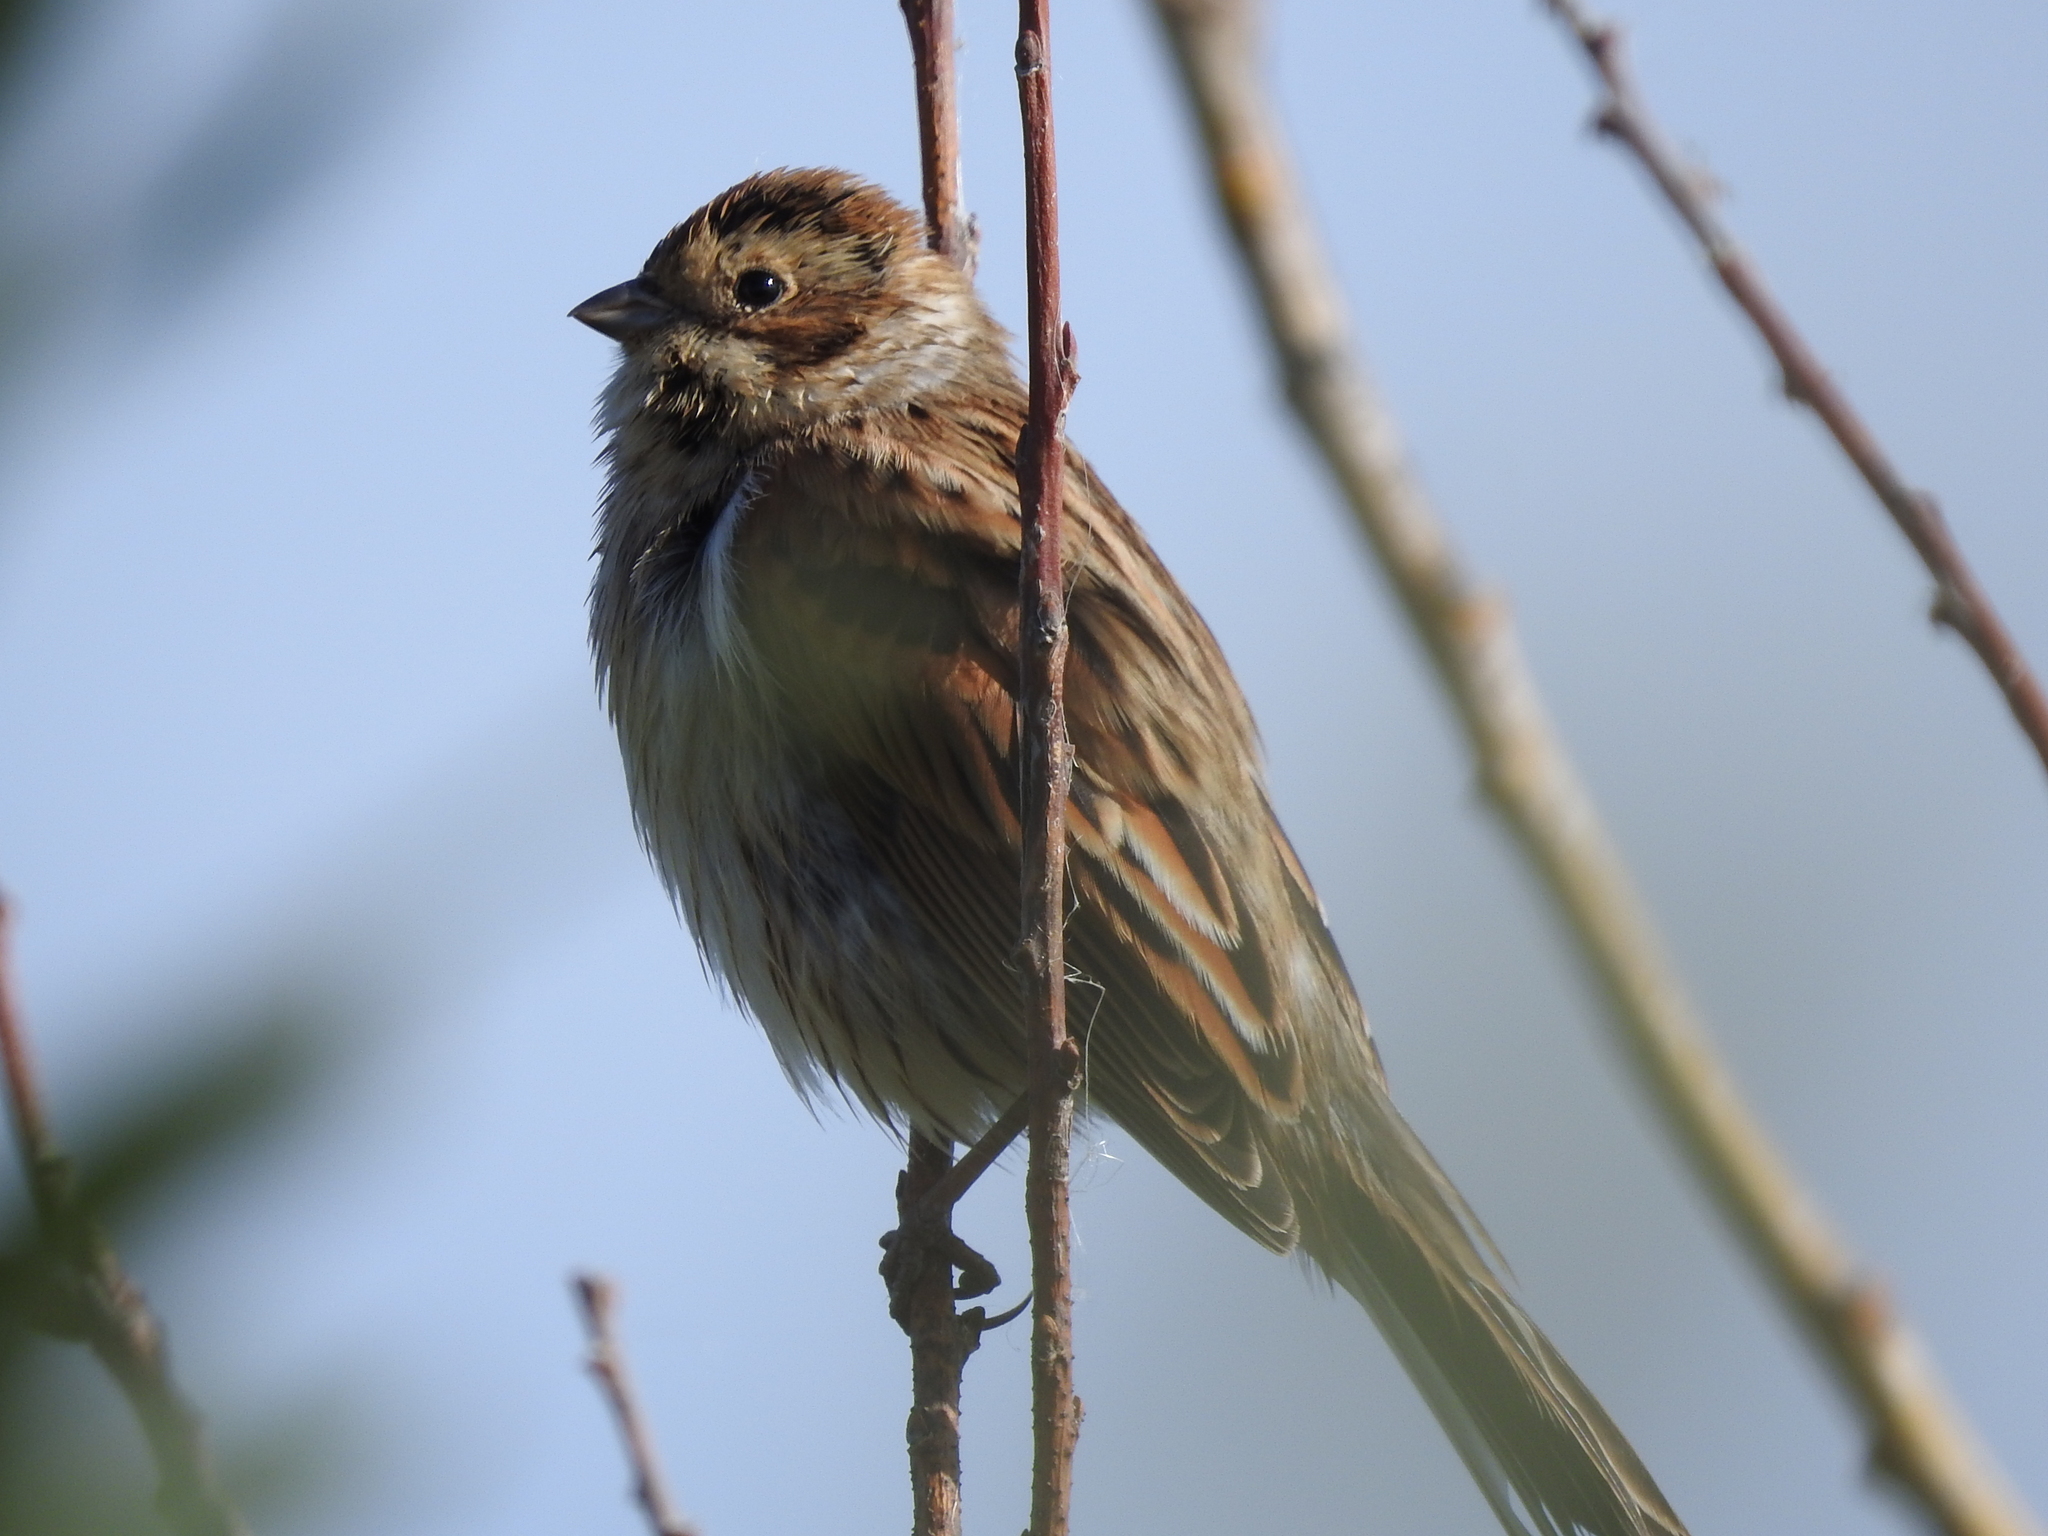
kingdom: Animalia
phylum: Chordata
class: Aves
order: Passeriformes
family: Emberizidae
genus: Emberiza
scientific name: Emberiza schoeniclus
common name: Reed bunting
